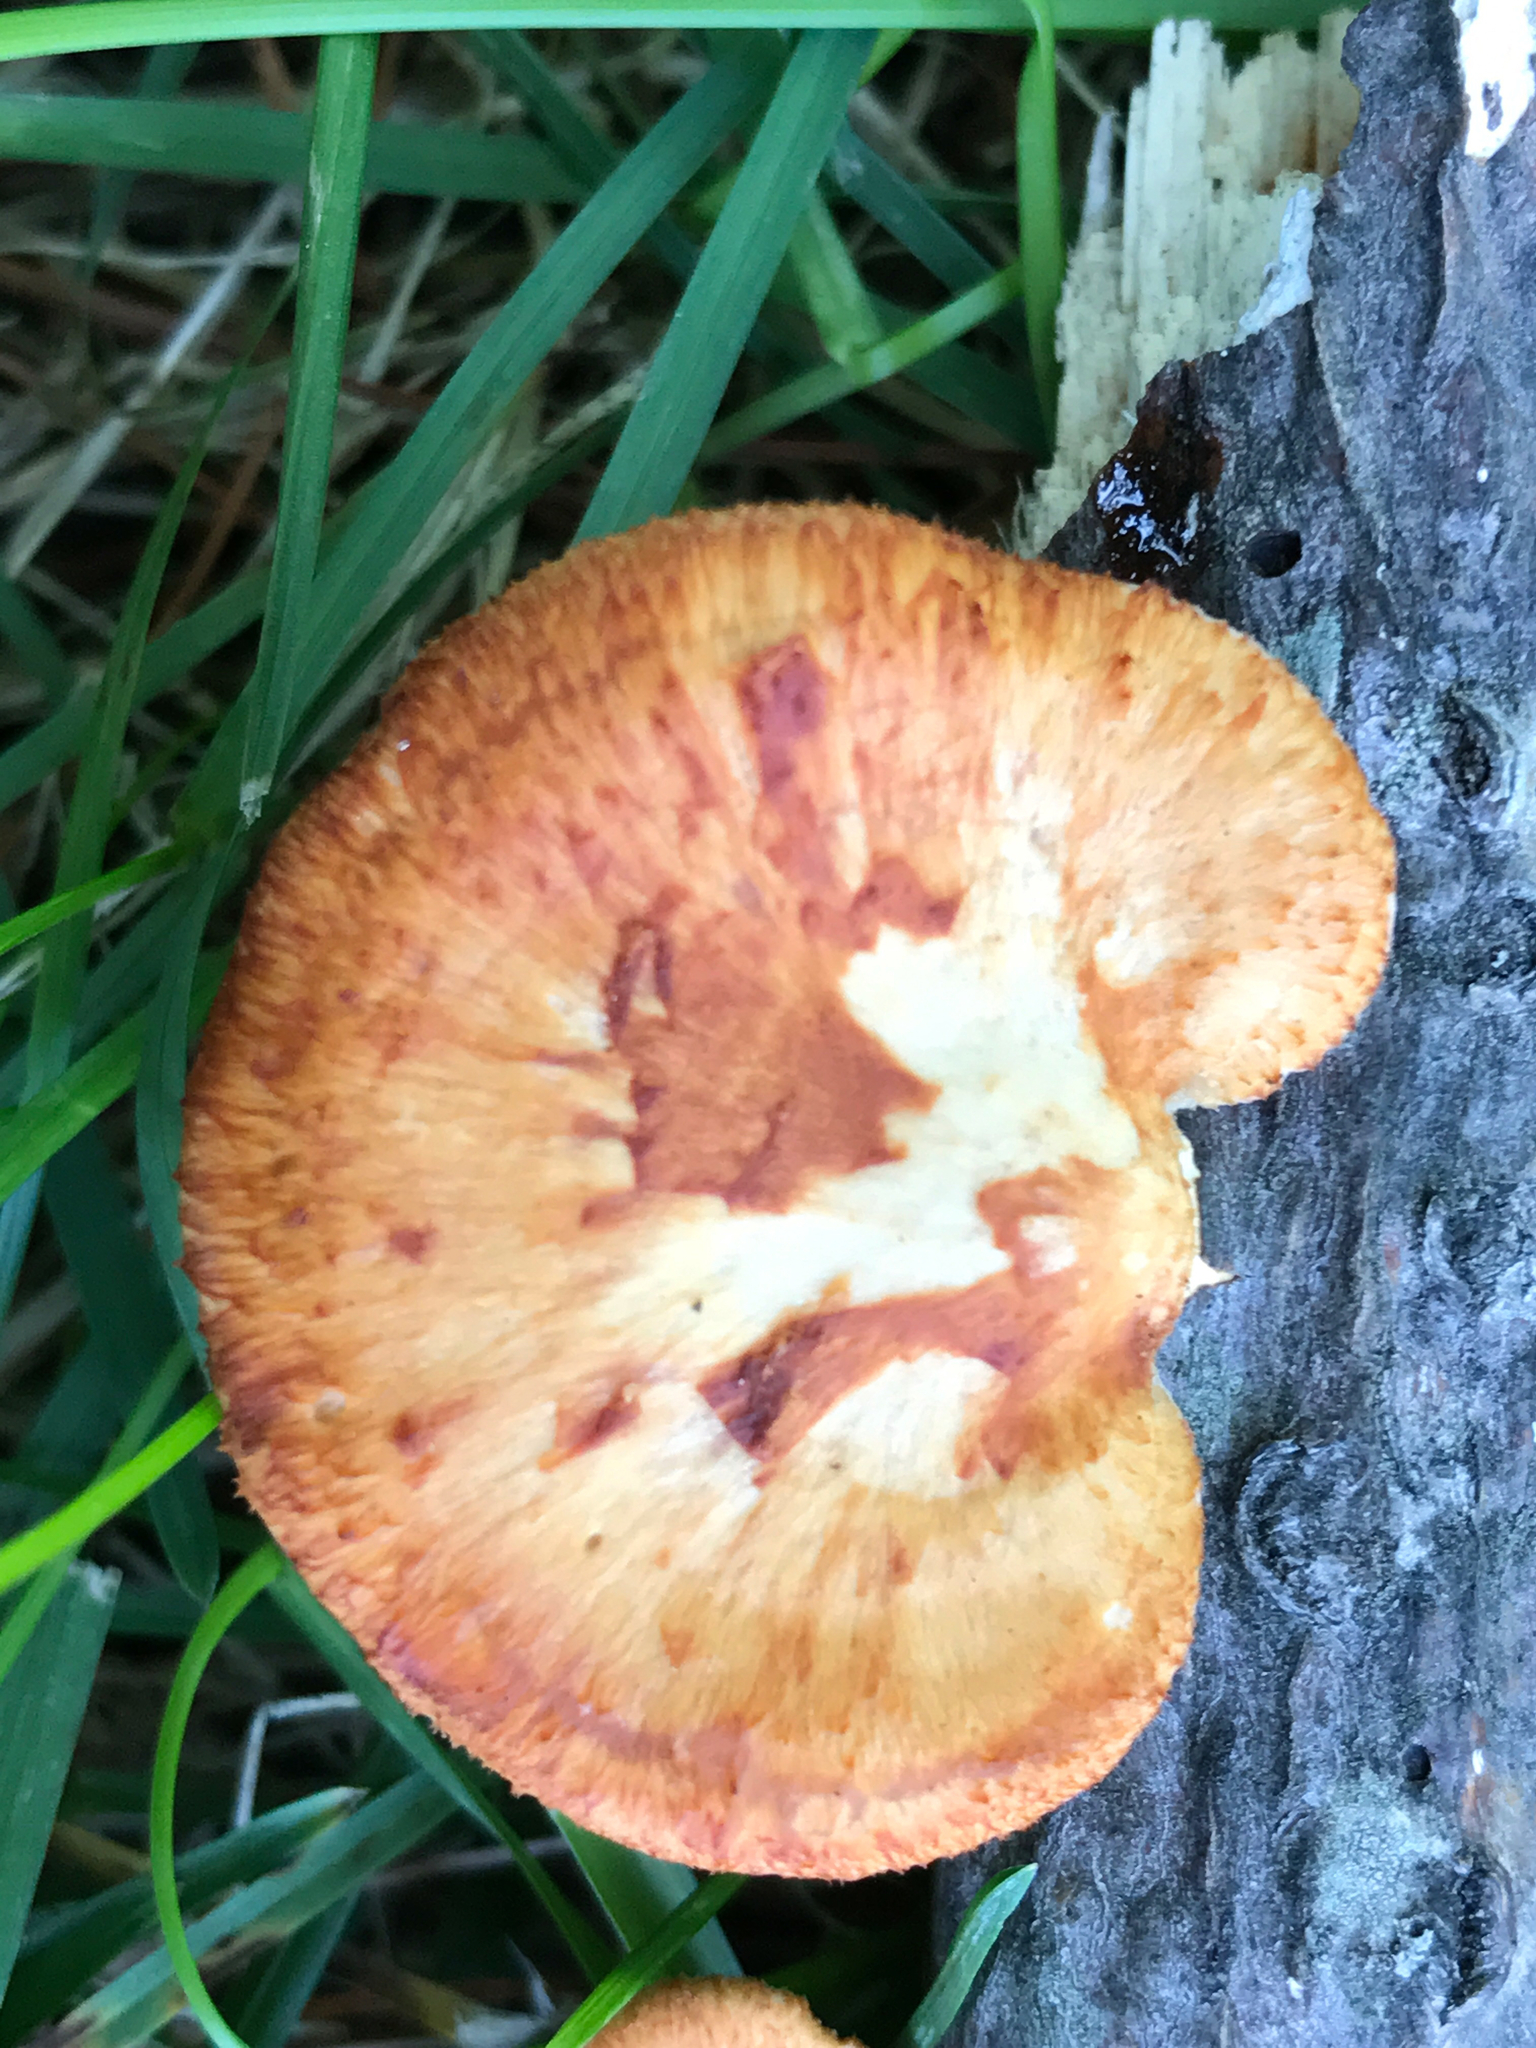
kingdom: Fungi
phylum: Basidiomycota
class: Agaricomycetes
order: Polyporales
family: Polyporaceae
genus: Neofavolus
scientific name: Neofavolus alveolaris
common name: Hexagonal-pored polypore
